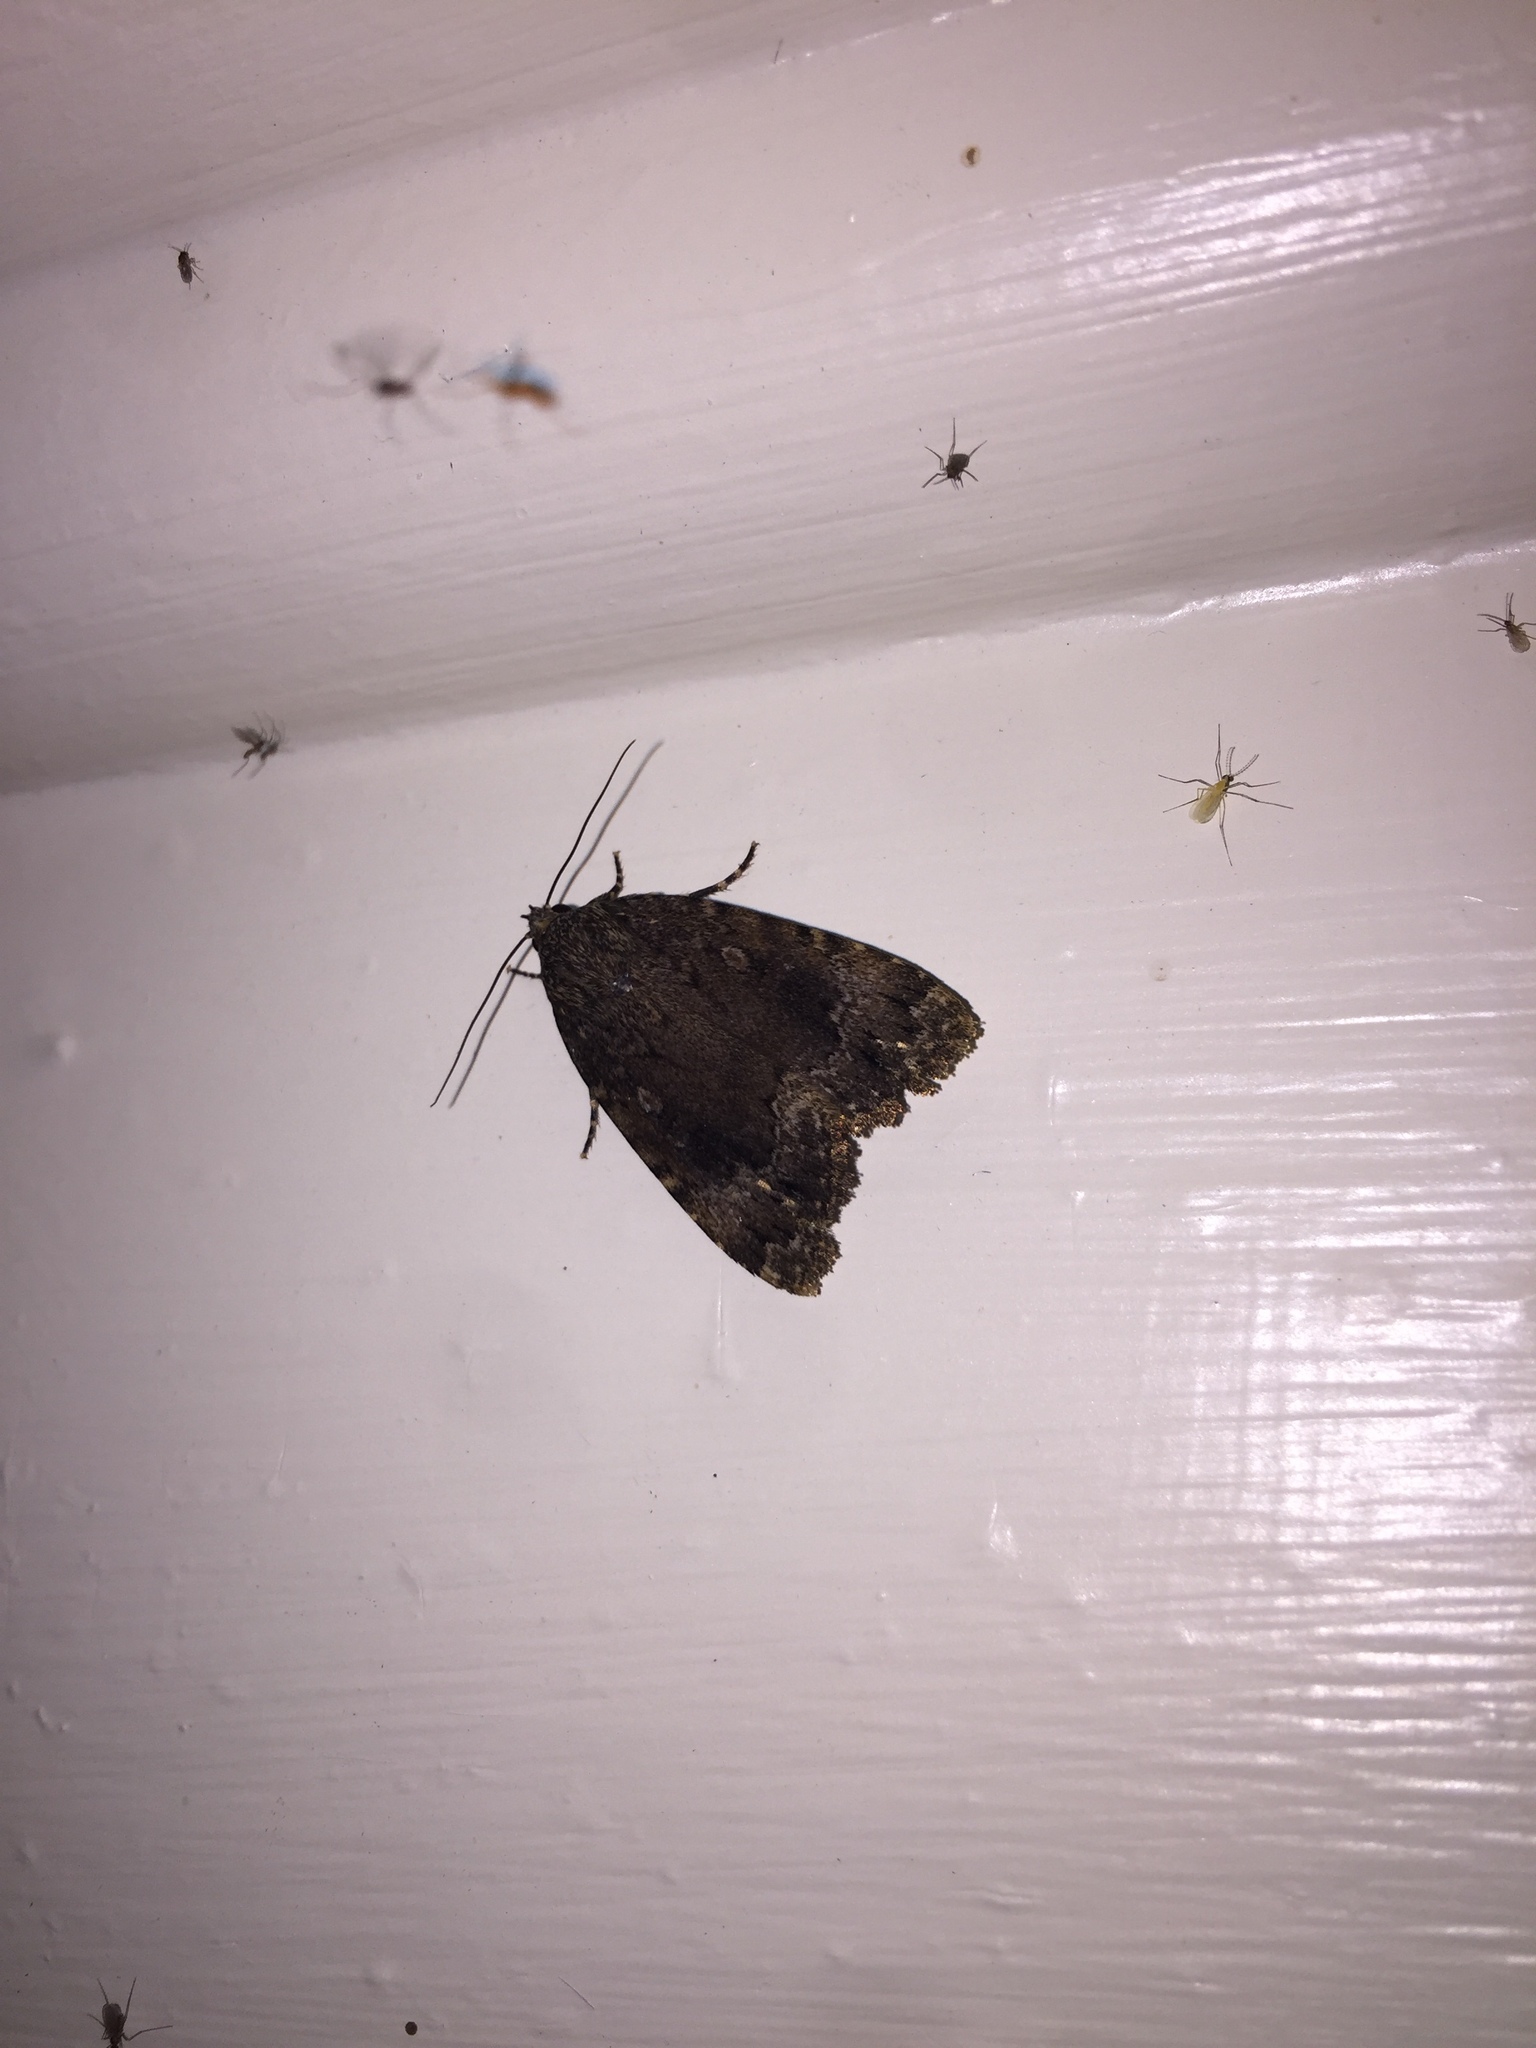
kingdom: Animalia
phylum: Arthropoda
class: Insecta
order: Lepidoptera
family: Noctuidae
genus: Amphipyra
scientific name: Amphipyra pyramidoides
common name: American copper underwing
